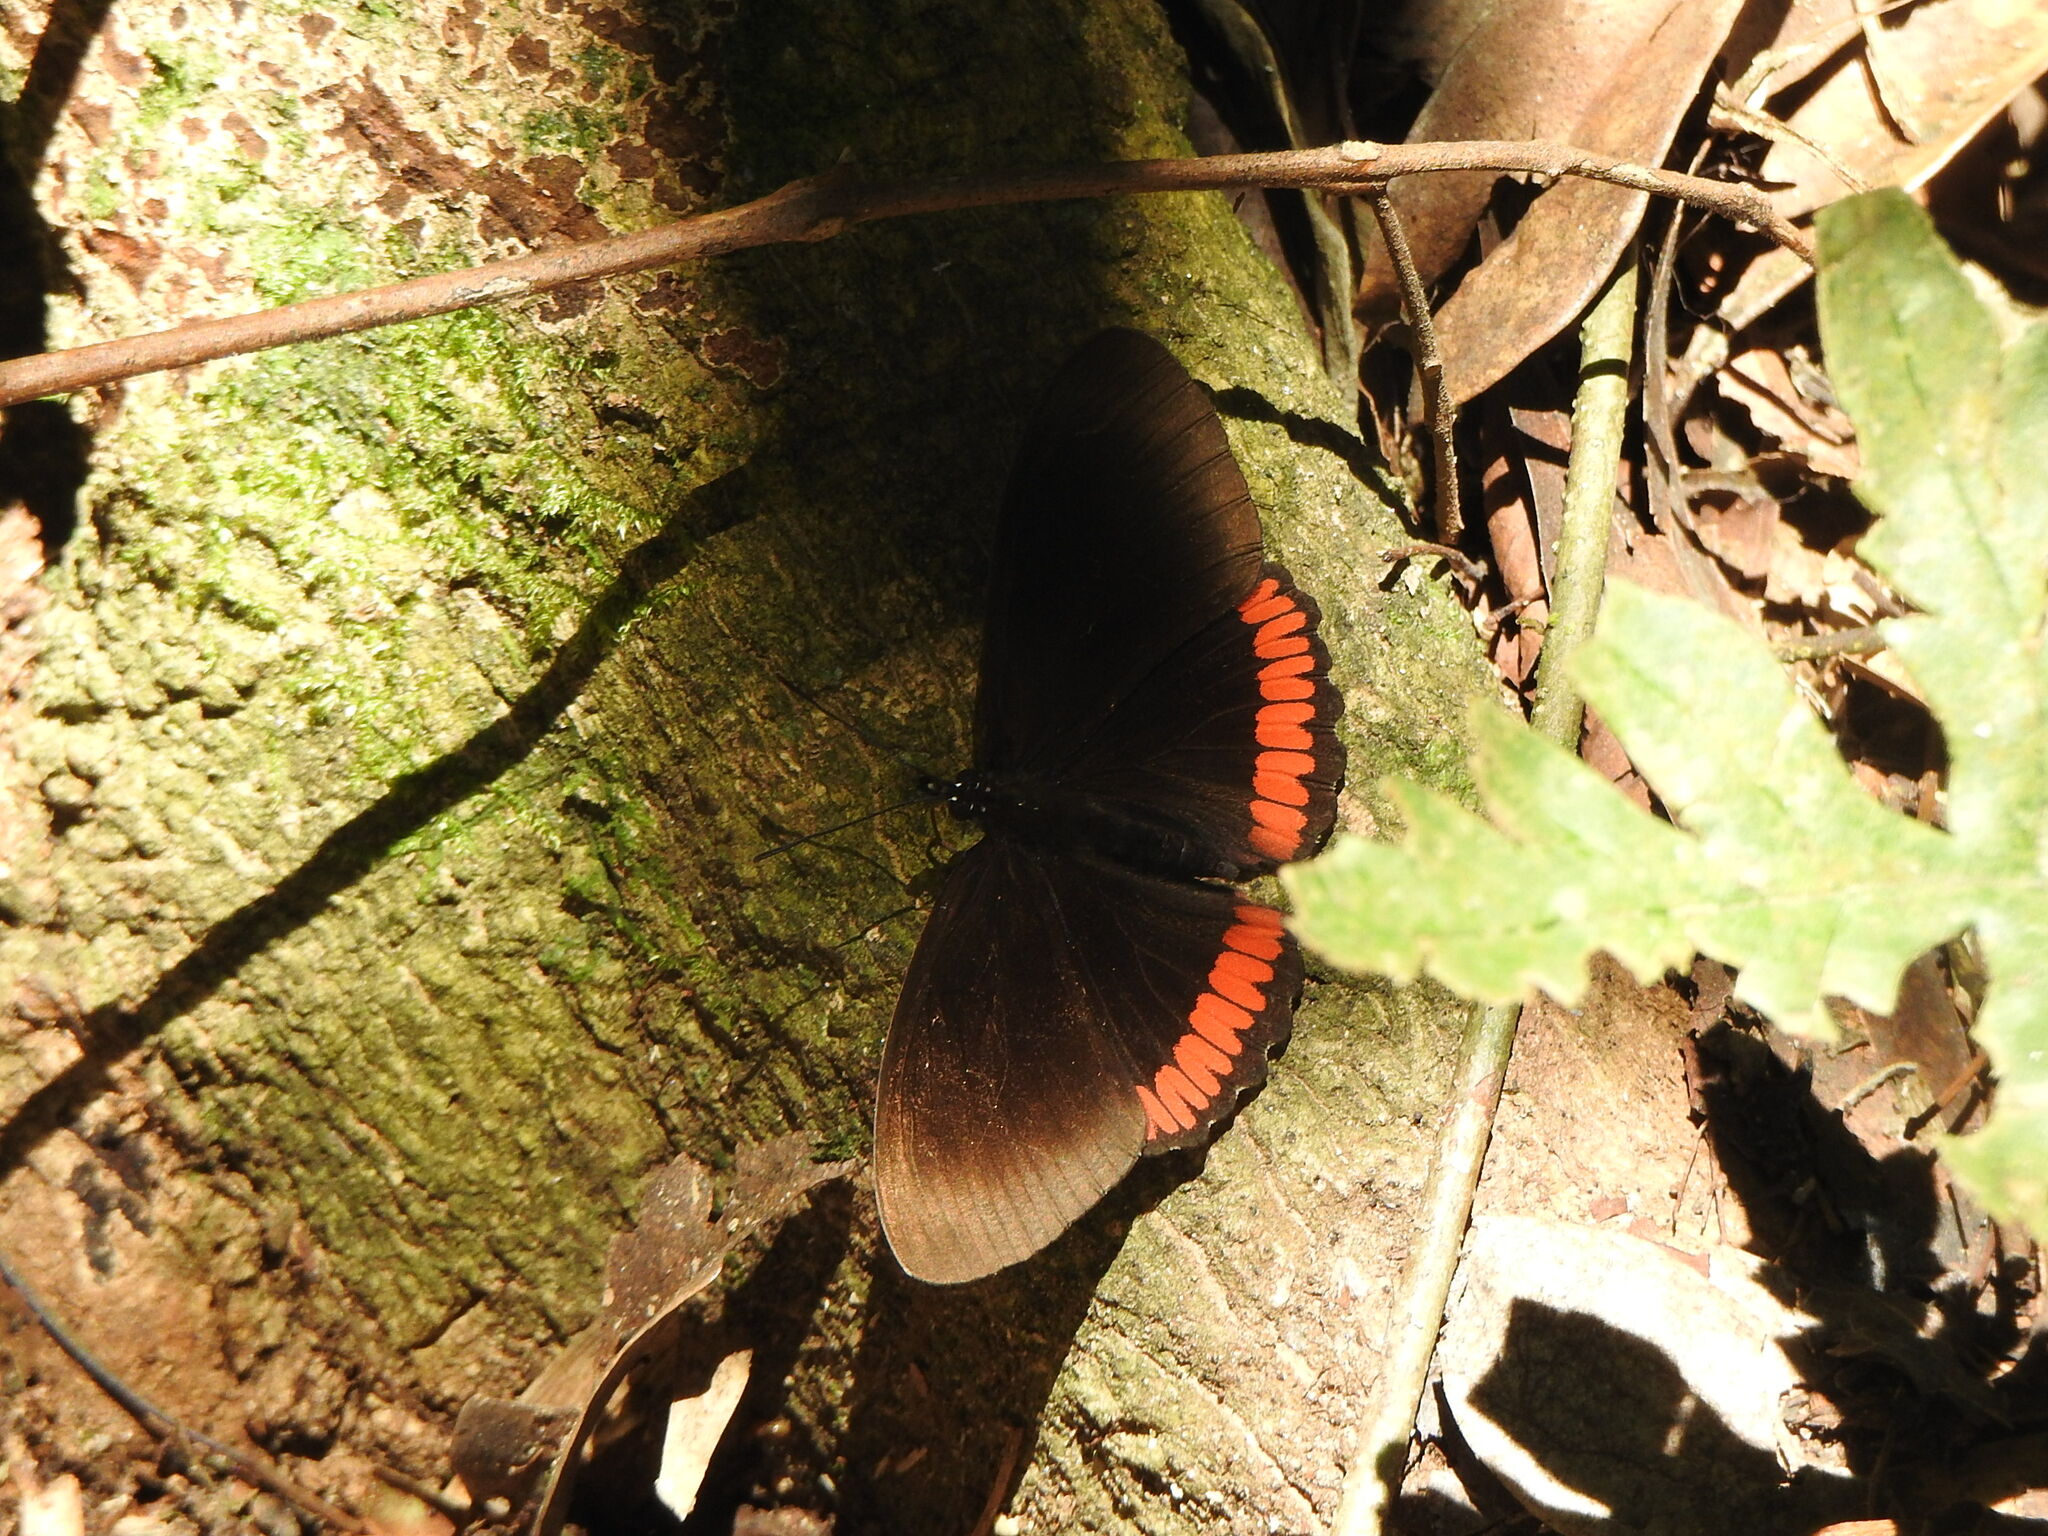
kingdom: Animalia
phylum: Arthropoda
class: Insecta
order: Lepidoptera
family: Sesiidae
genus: Sesia
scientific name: Sesia Biblis hyperia
